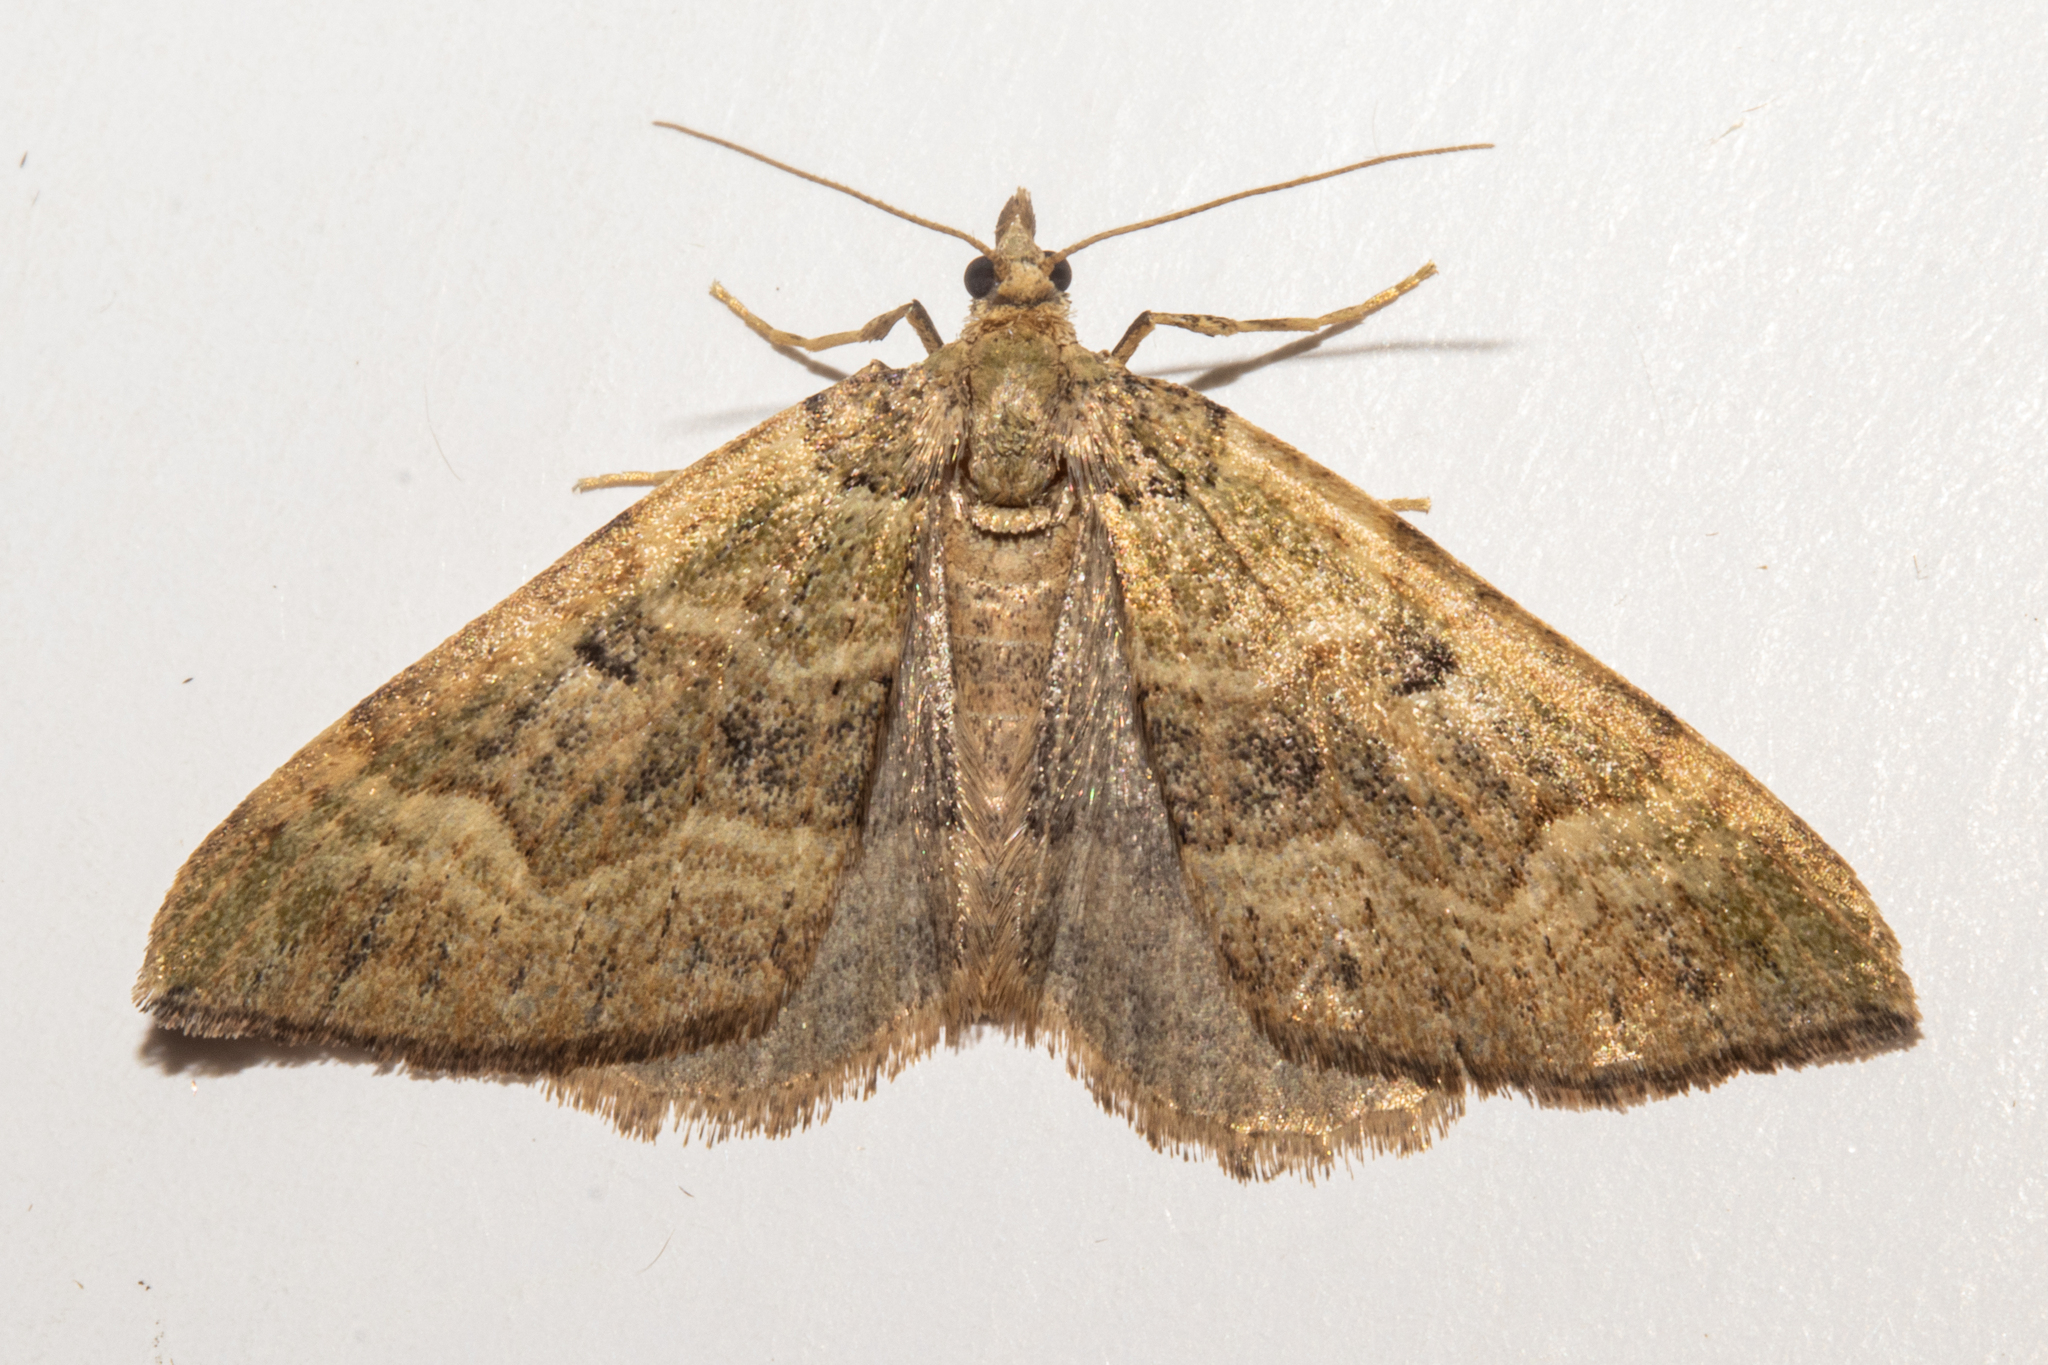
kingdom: Animalia
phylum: Arthropoda
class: Insecta
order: Lepidoptera
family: Geometridae
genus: Epyaxa
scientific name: Epyaxa rosearia
